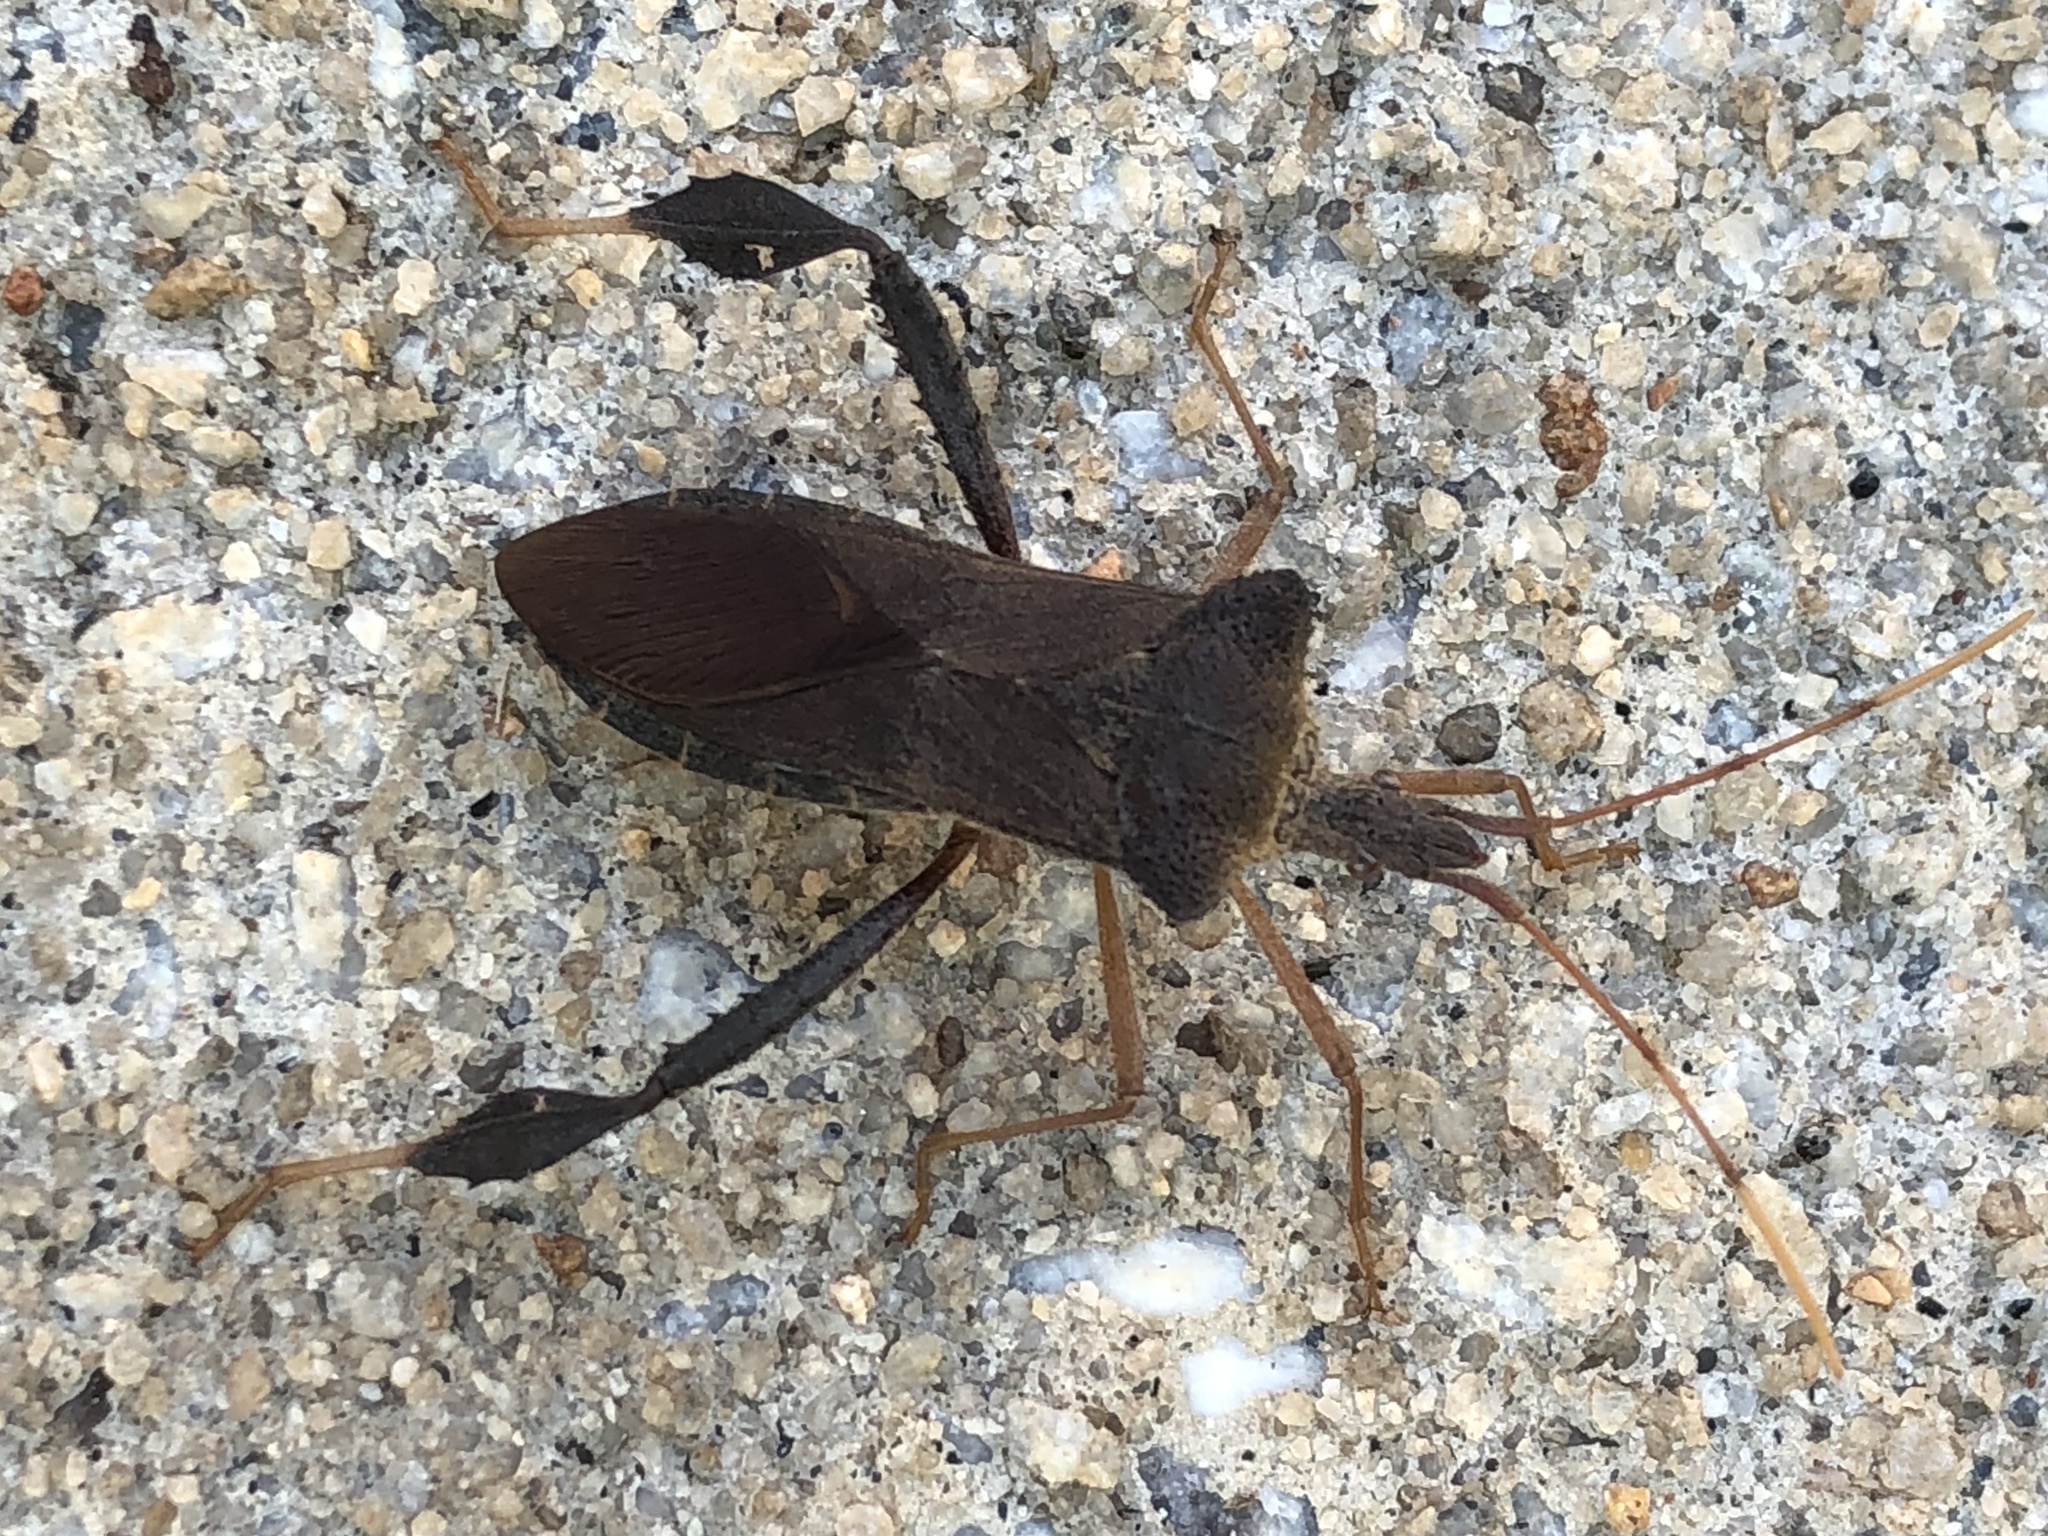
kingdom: Animalia
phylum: Arthropoda
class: Insecta
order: Hemiptera
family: Coreidae
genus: Leptoglossus
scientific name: Leptoglossus fulvicornis
